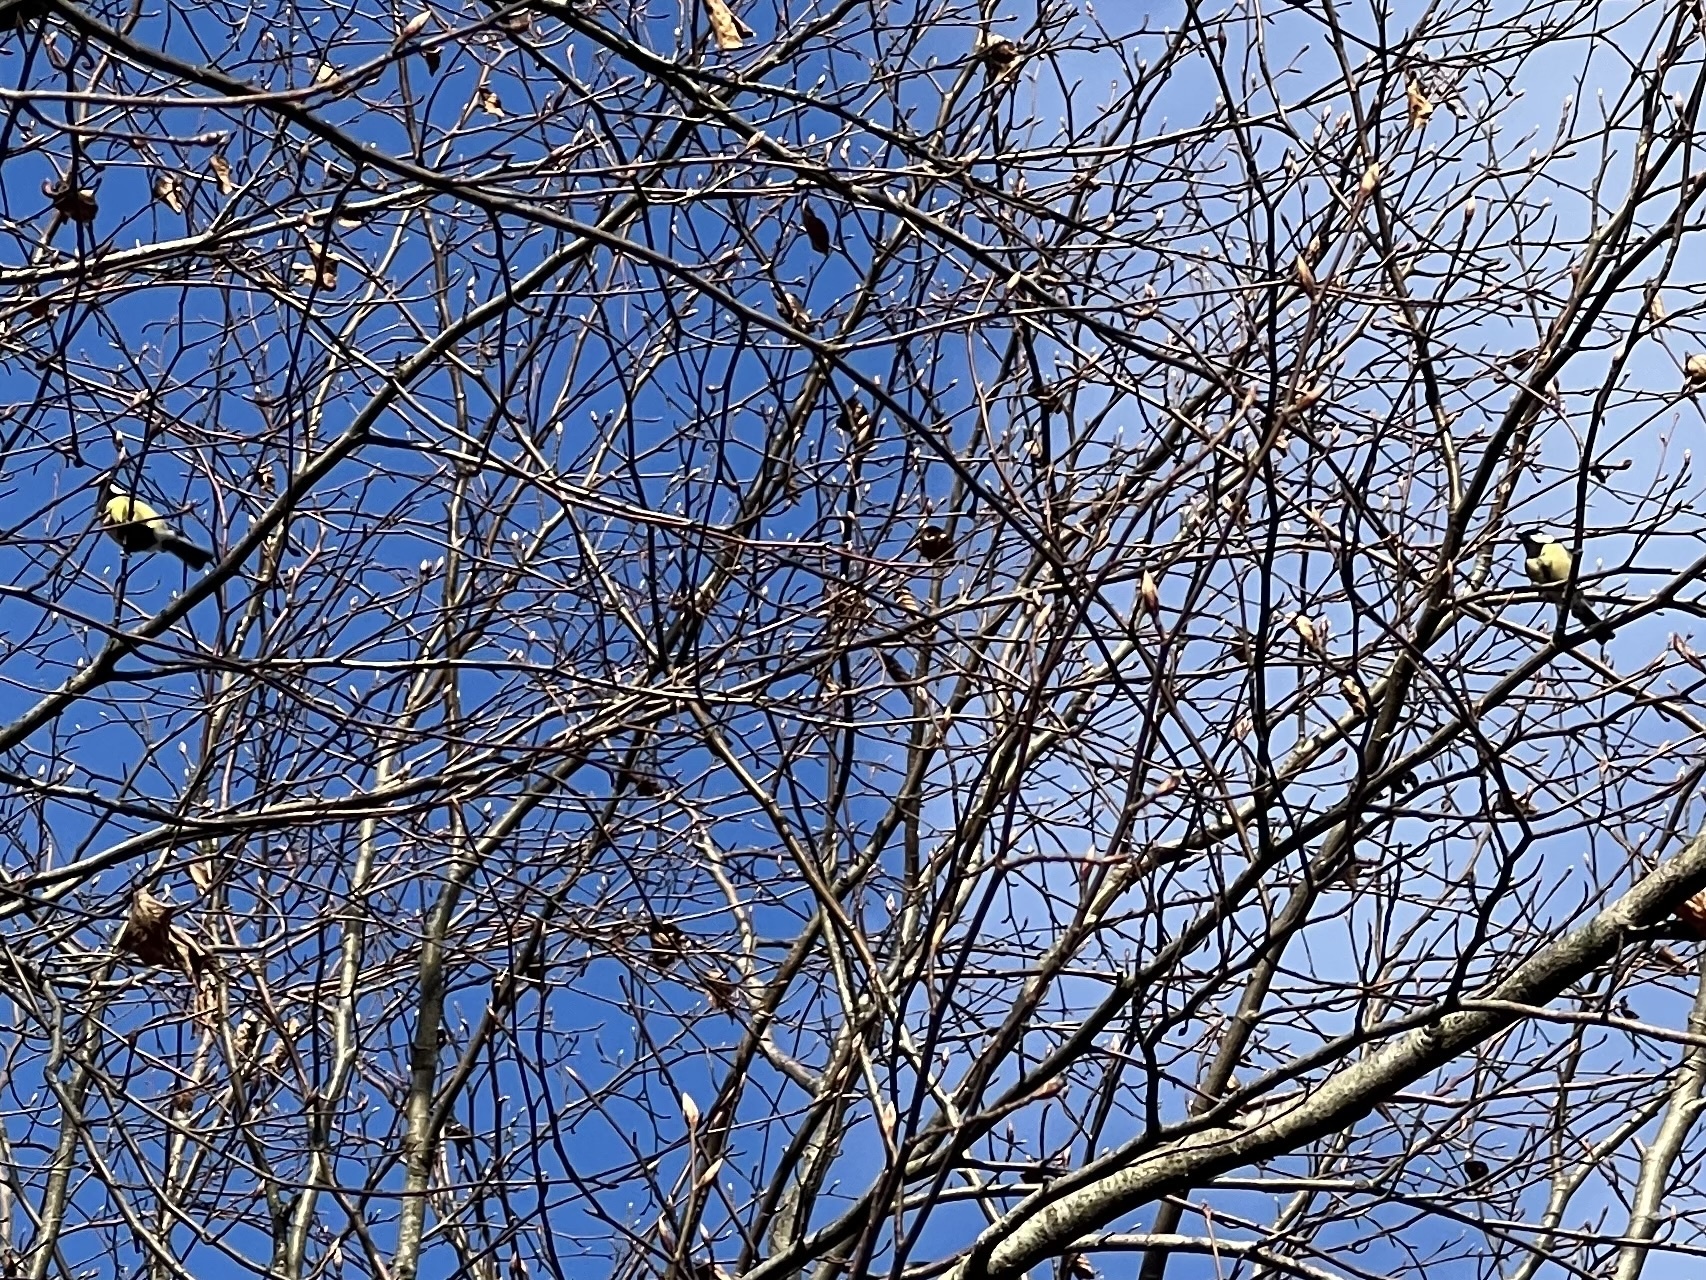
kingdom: Animalia
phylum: Chordata
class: Aves
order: Passeriformes
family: Paridae
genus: Parus
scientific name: Parus major
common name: Great tit
